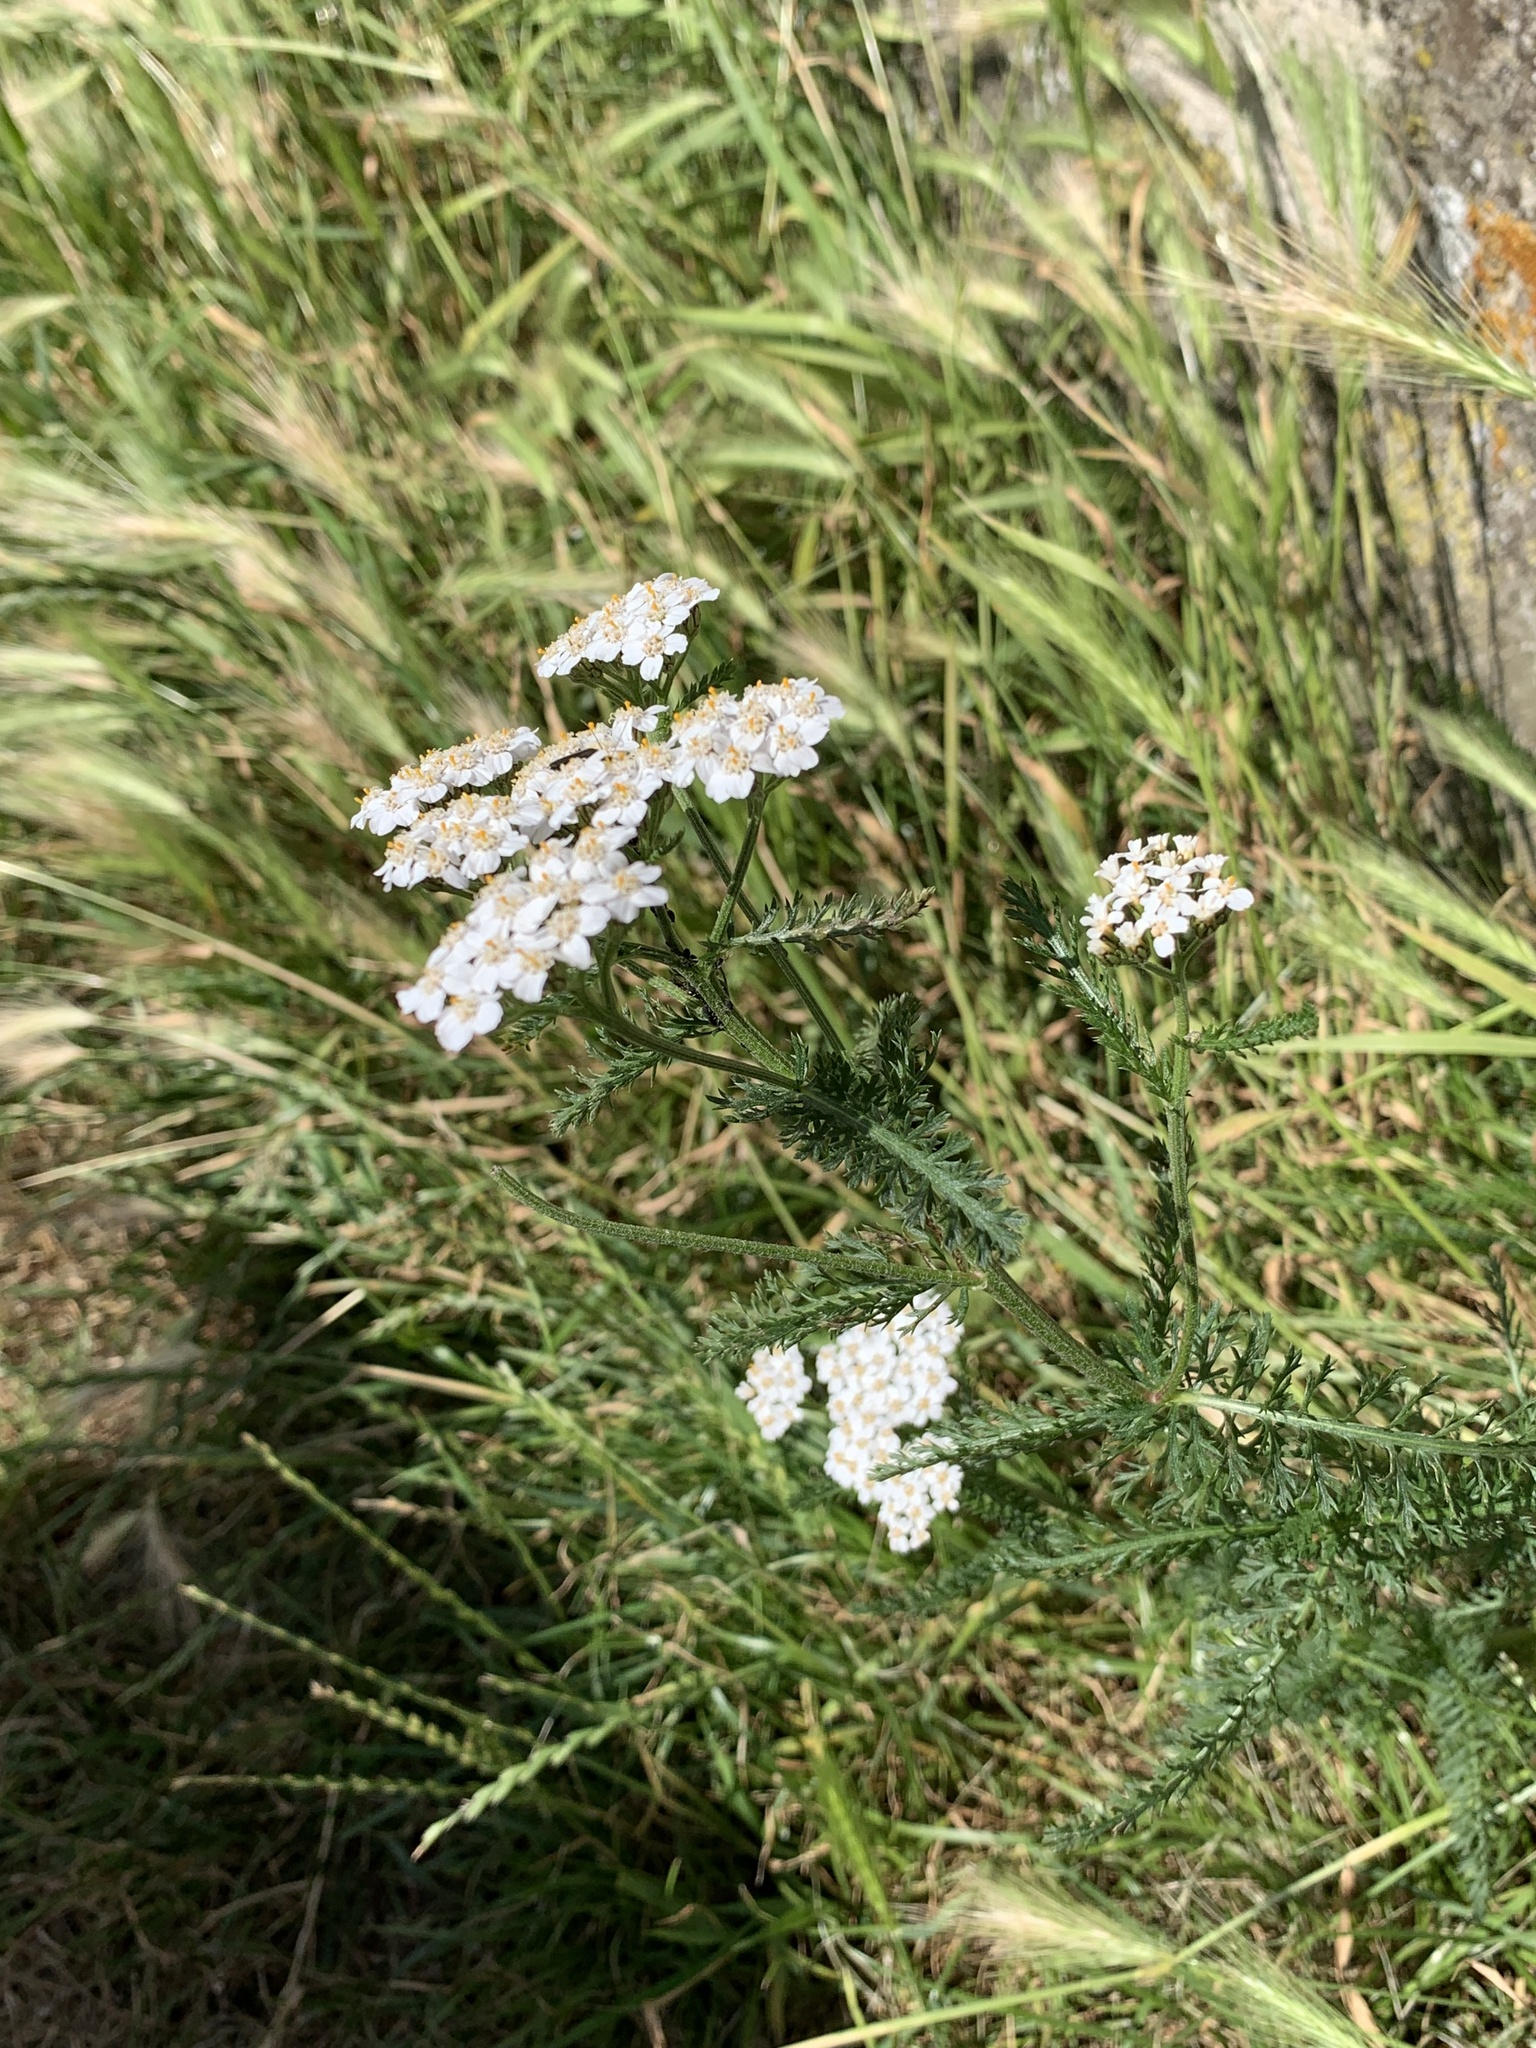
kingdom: Plantae
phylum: Tracheophyta
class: Magnoliopsida
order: Asterales
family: Asteraceae
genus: Achillea
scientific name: Achillea millefolium
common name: Yarrow
